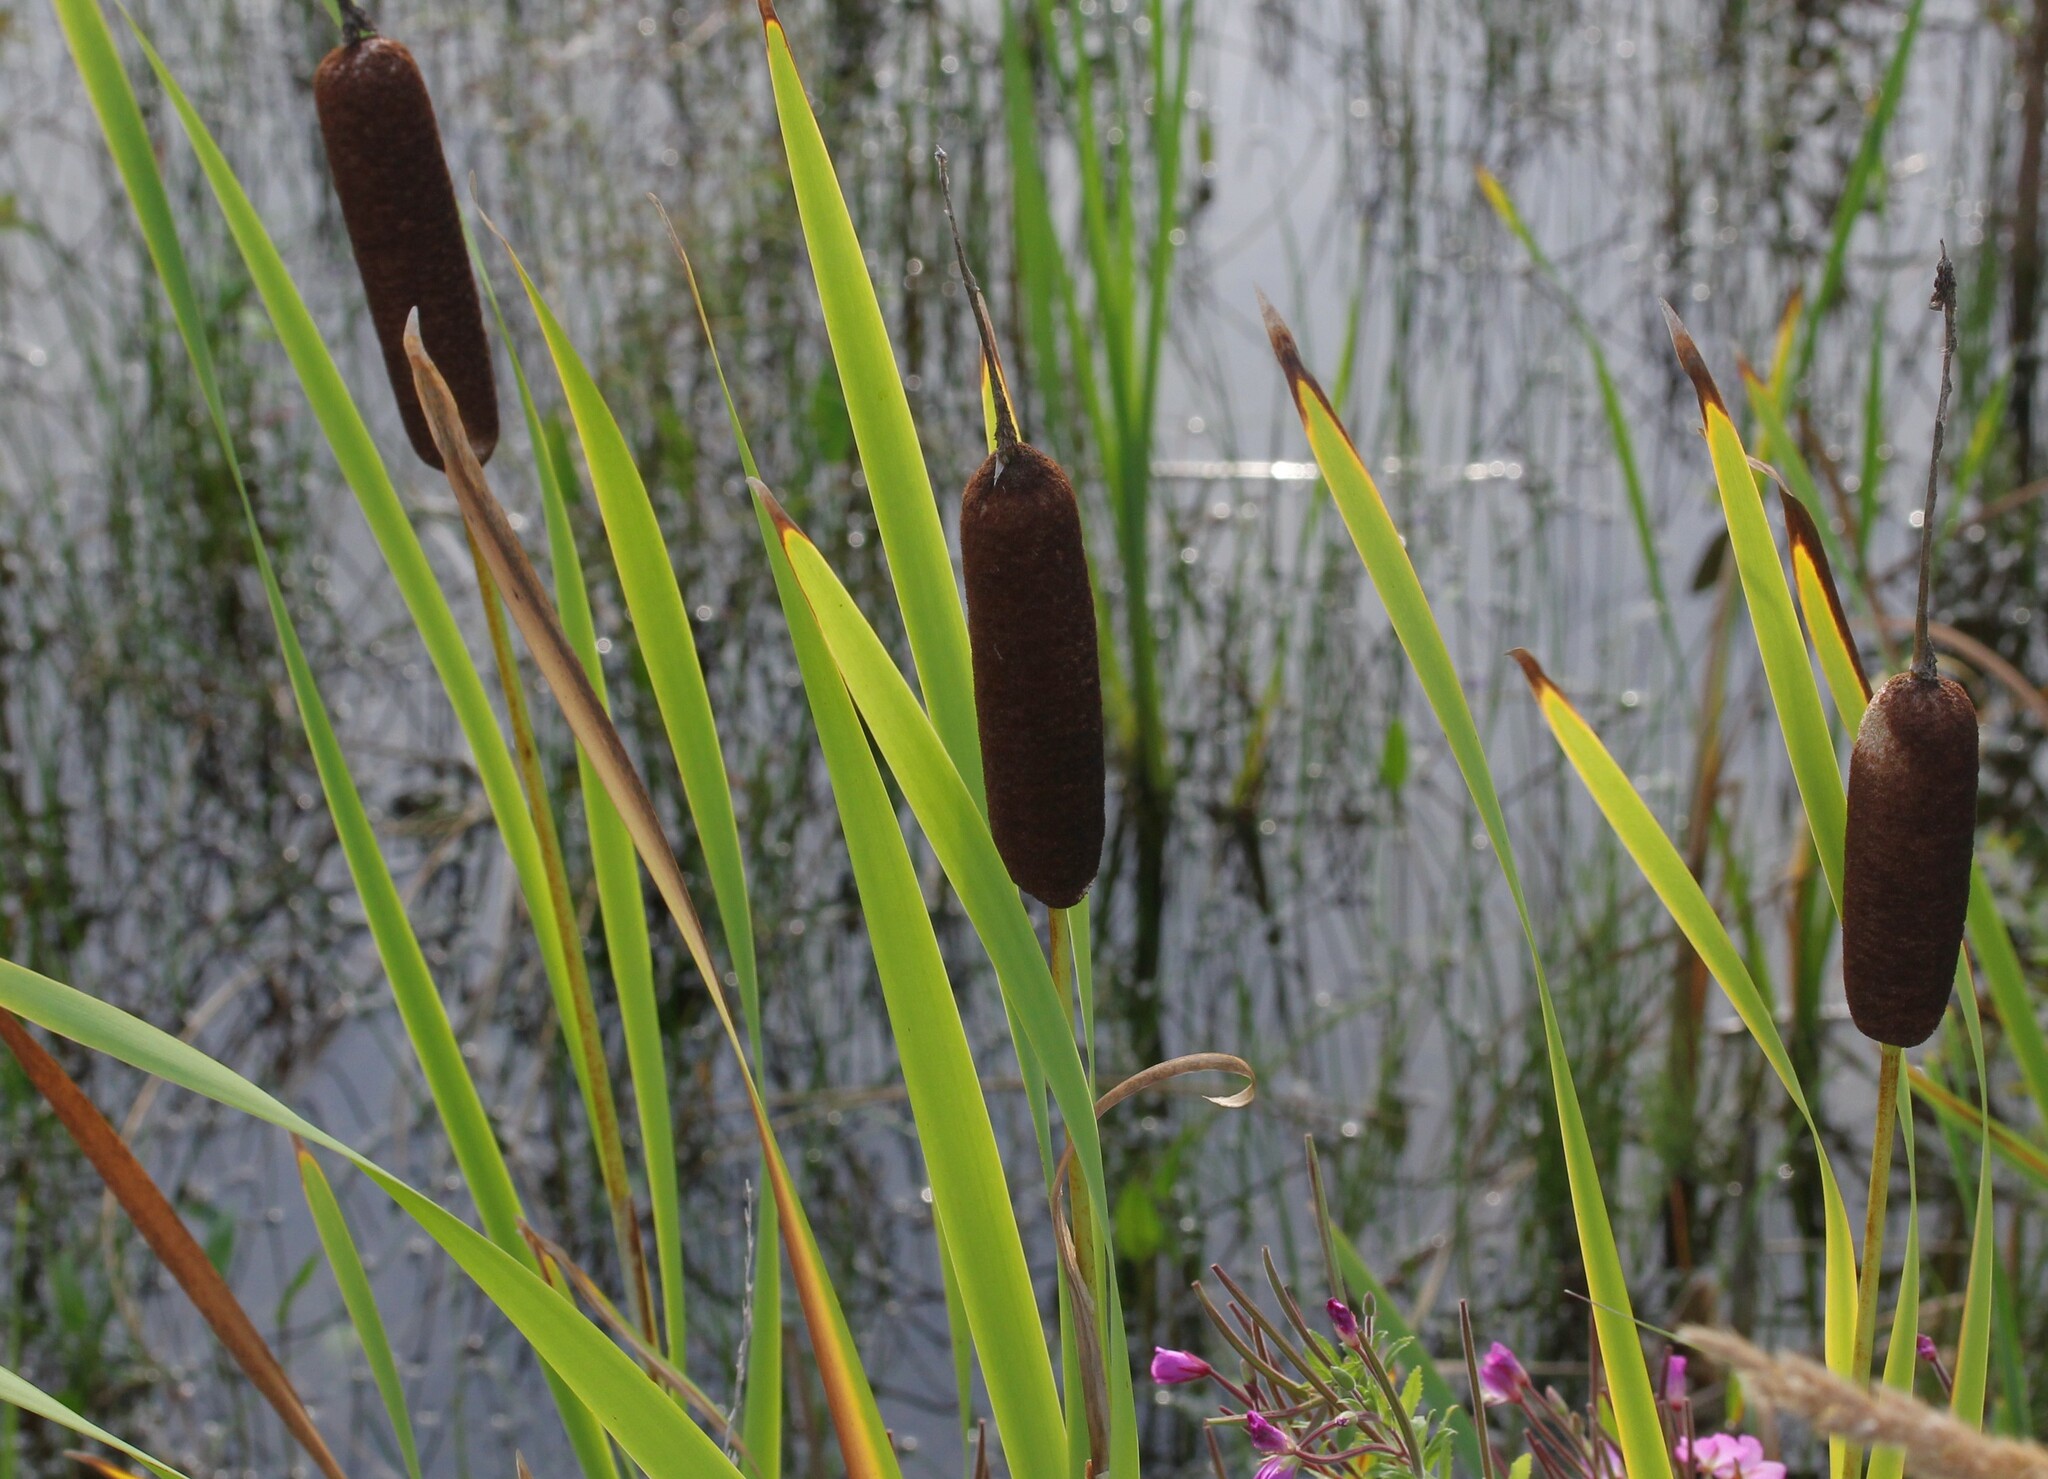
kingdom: Plantae
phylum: Tracheophyta
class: Liliopsida
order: Poales
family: Typhaceae
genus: Typha
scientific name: Typha latifolia
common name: Broadleaf cattail
